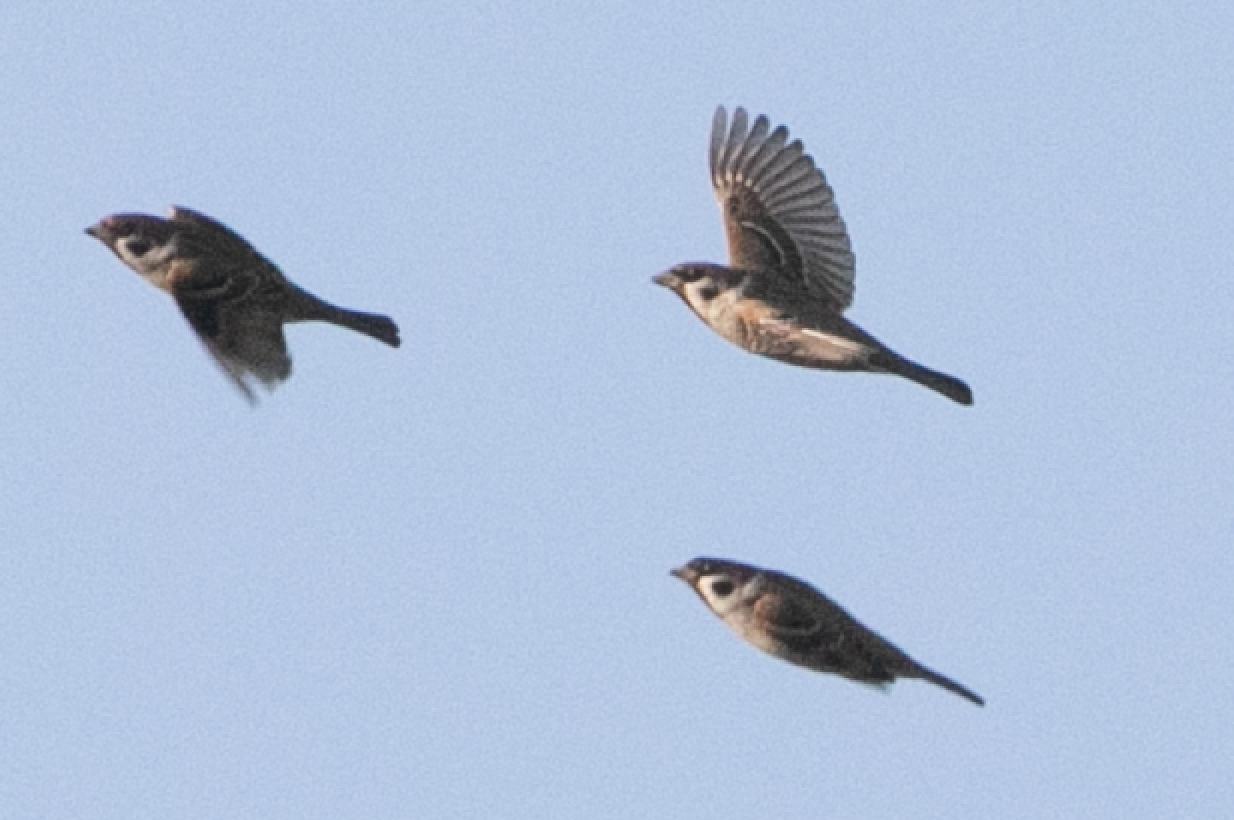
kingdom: Animalia
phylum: Chordata
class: Aves
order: Passeriformes
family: Passeridae
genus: Passer
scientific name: Passer montanus
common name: Eurasian tree sparrow
